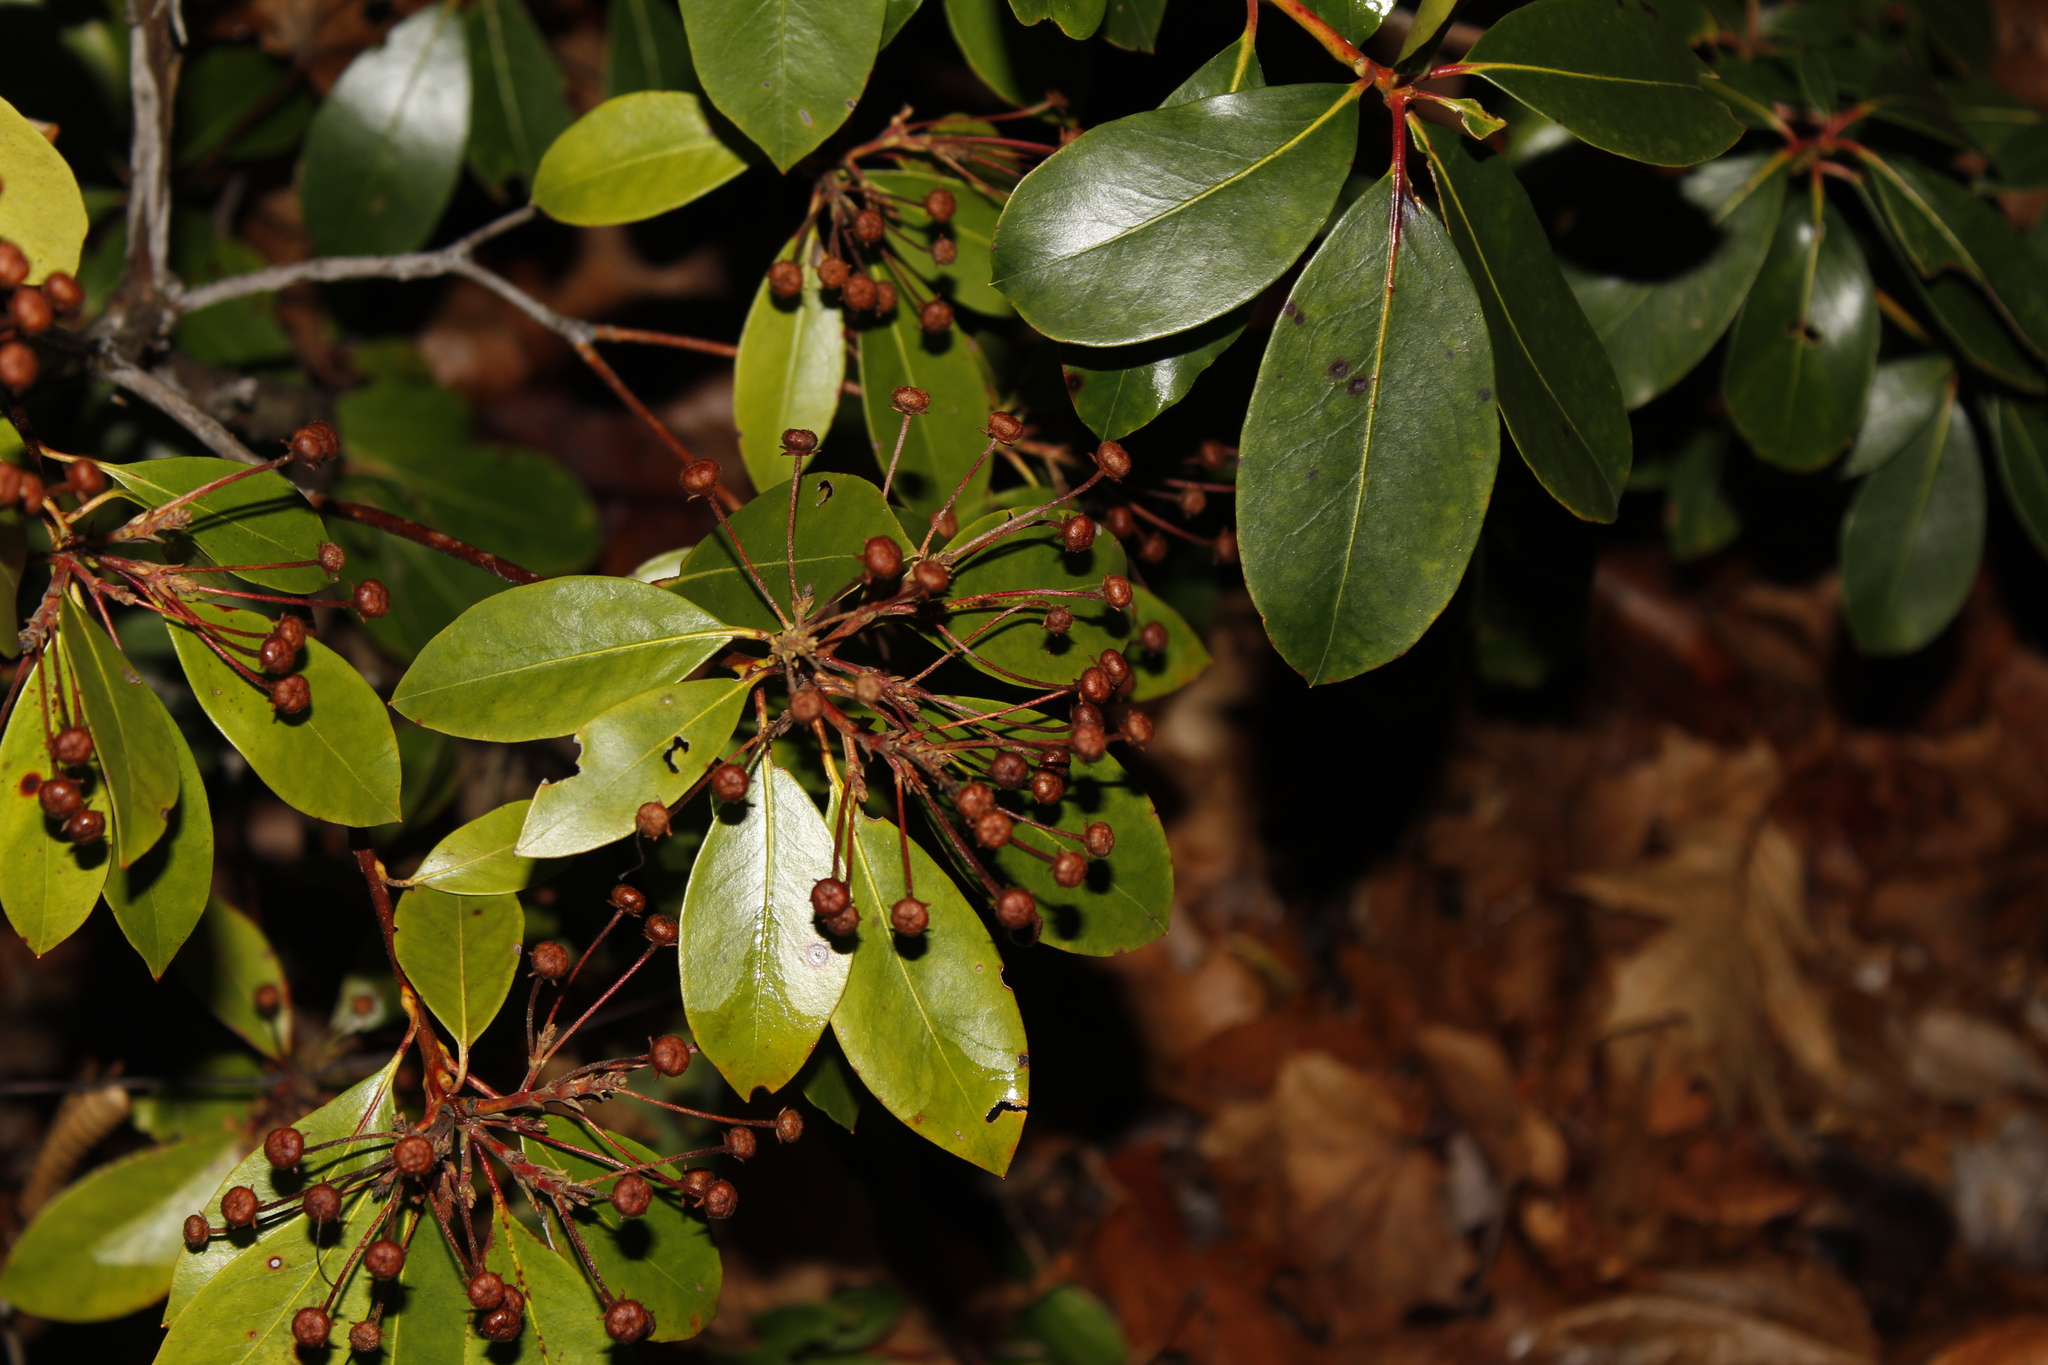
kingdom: Plantae
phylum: Tracheophyta
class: Magnoliopsida
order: Ericales
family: Ericaceae
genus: Kalmia
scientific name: Kalmia latifolia
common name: Mountain-laurel
